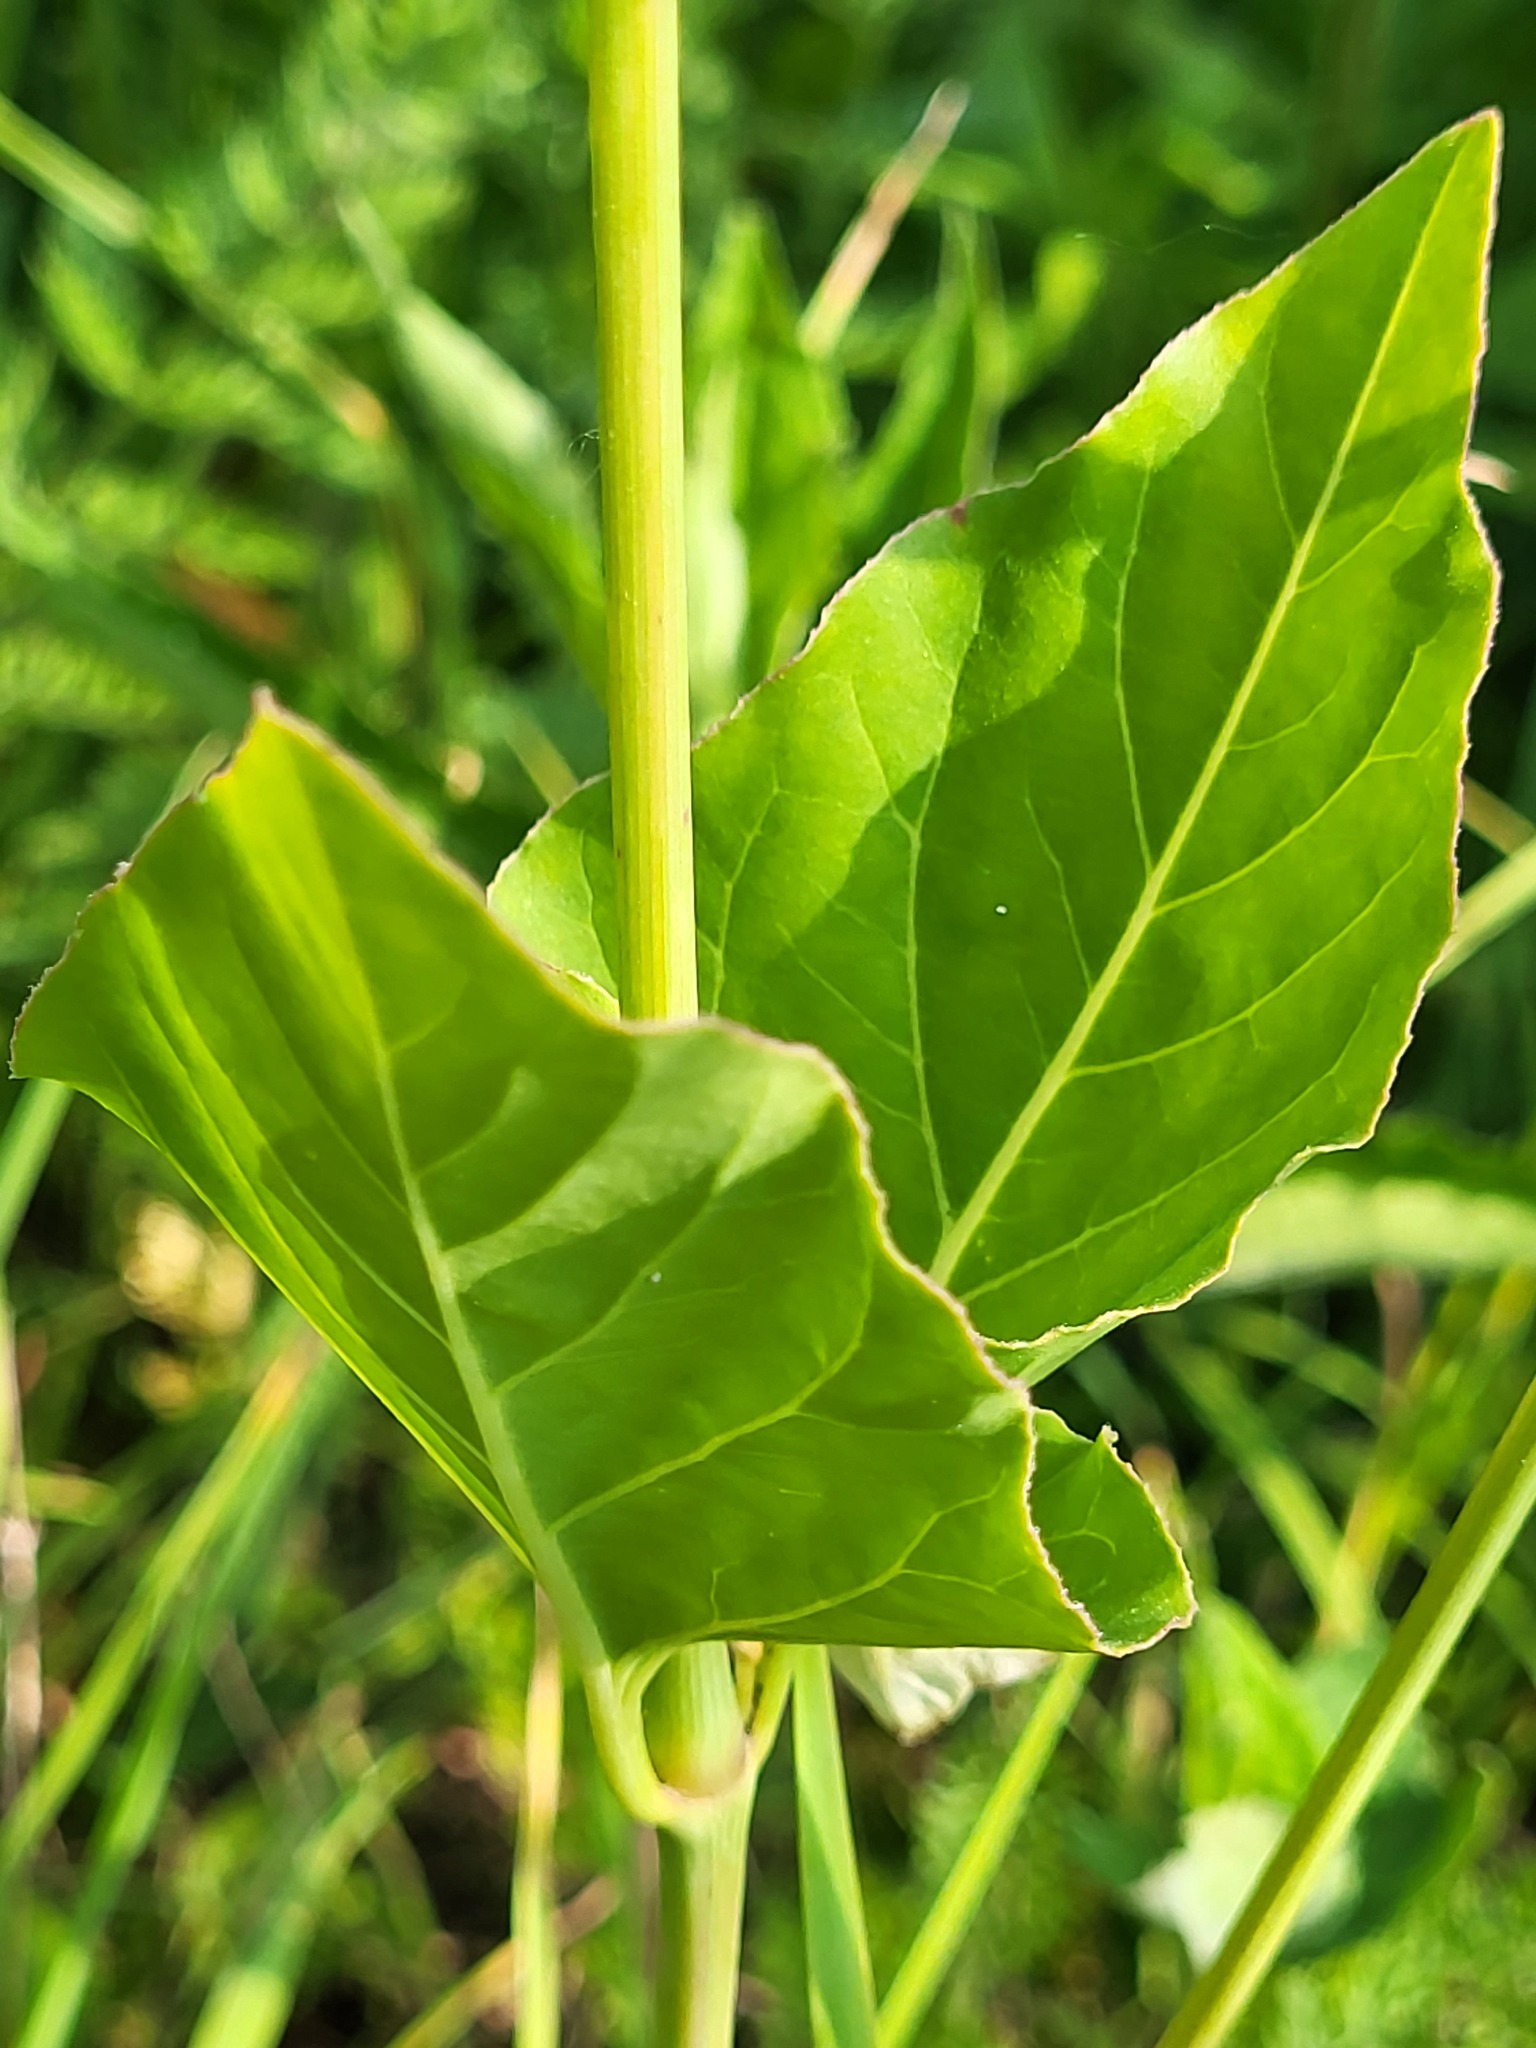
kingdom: Plantae
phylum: Tracheophyta
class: Magnoliopsida
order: Caryophyllales
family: Nyctaginaceae
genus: Mirabilis
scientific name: Mirabilis nyctaginea
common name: Umbrella wort
